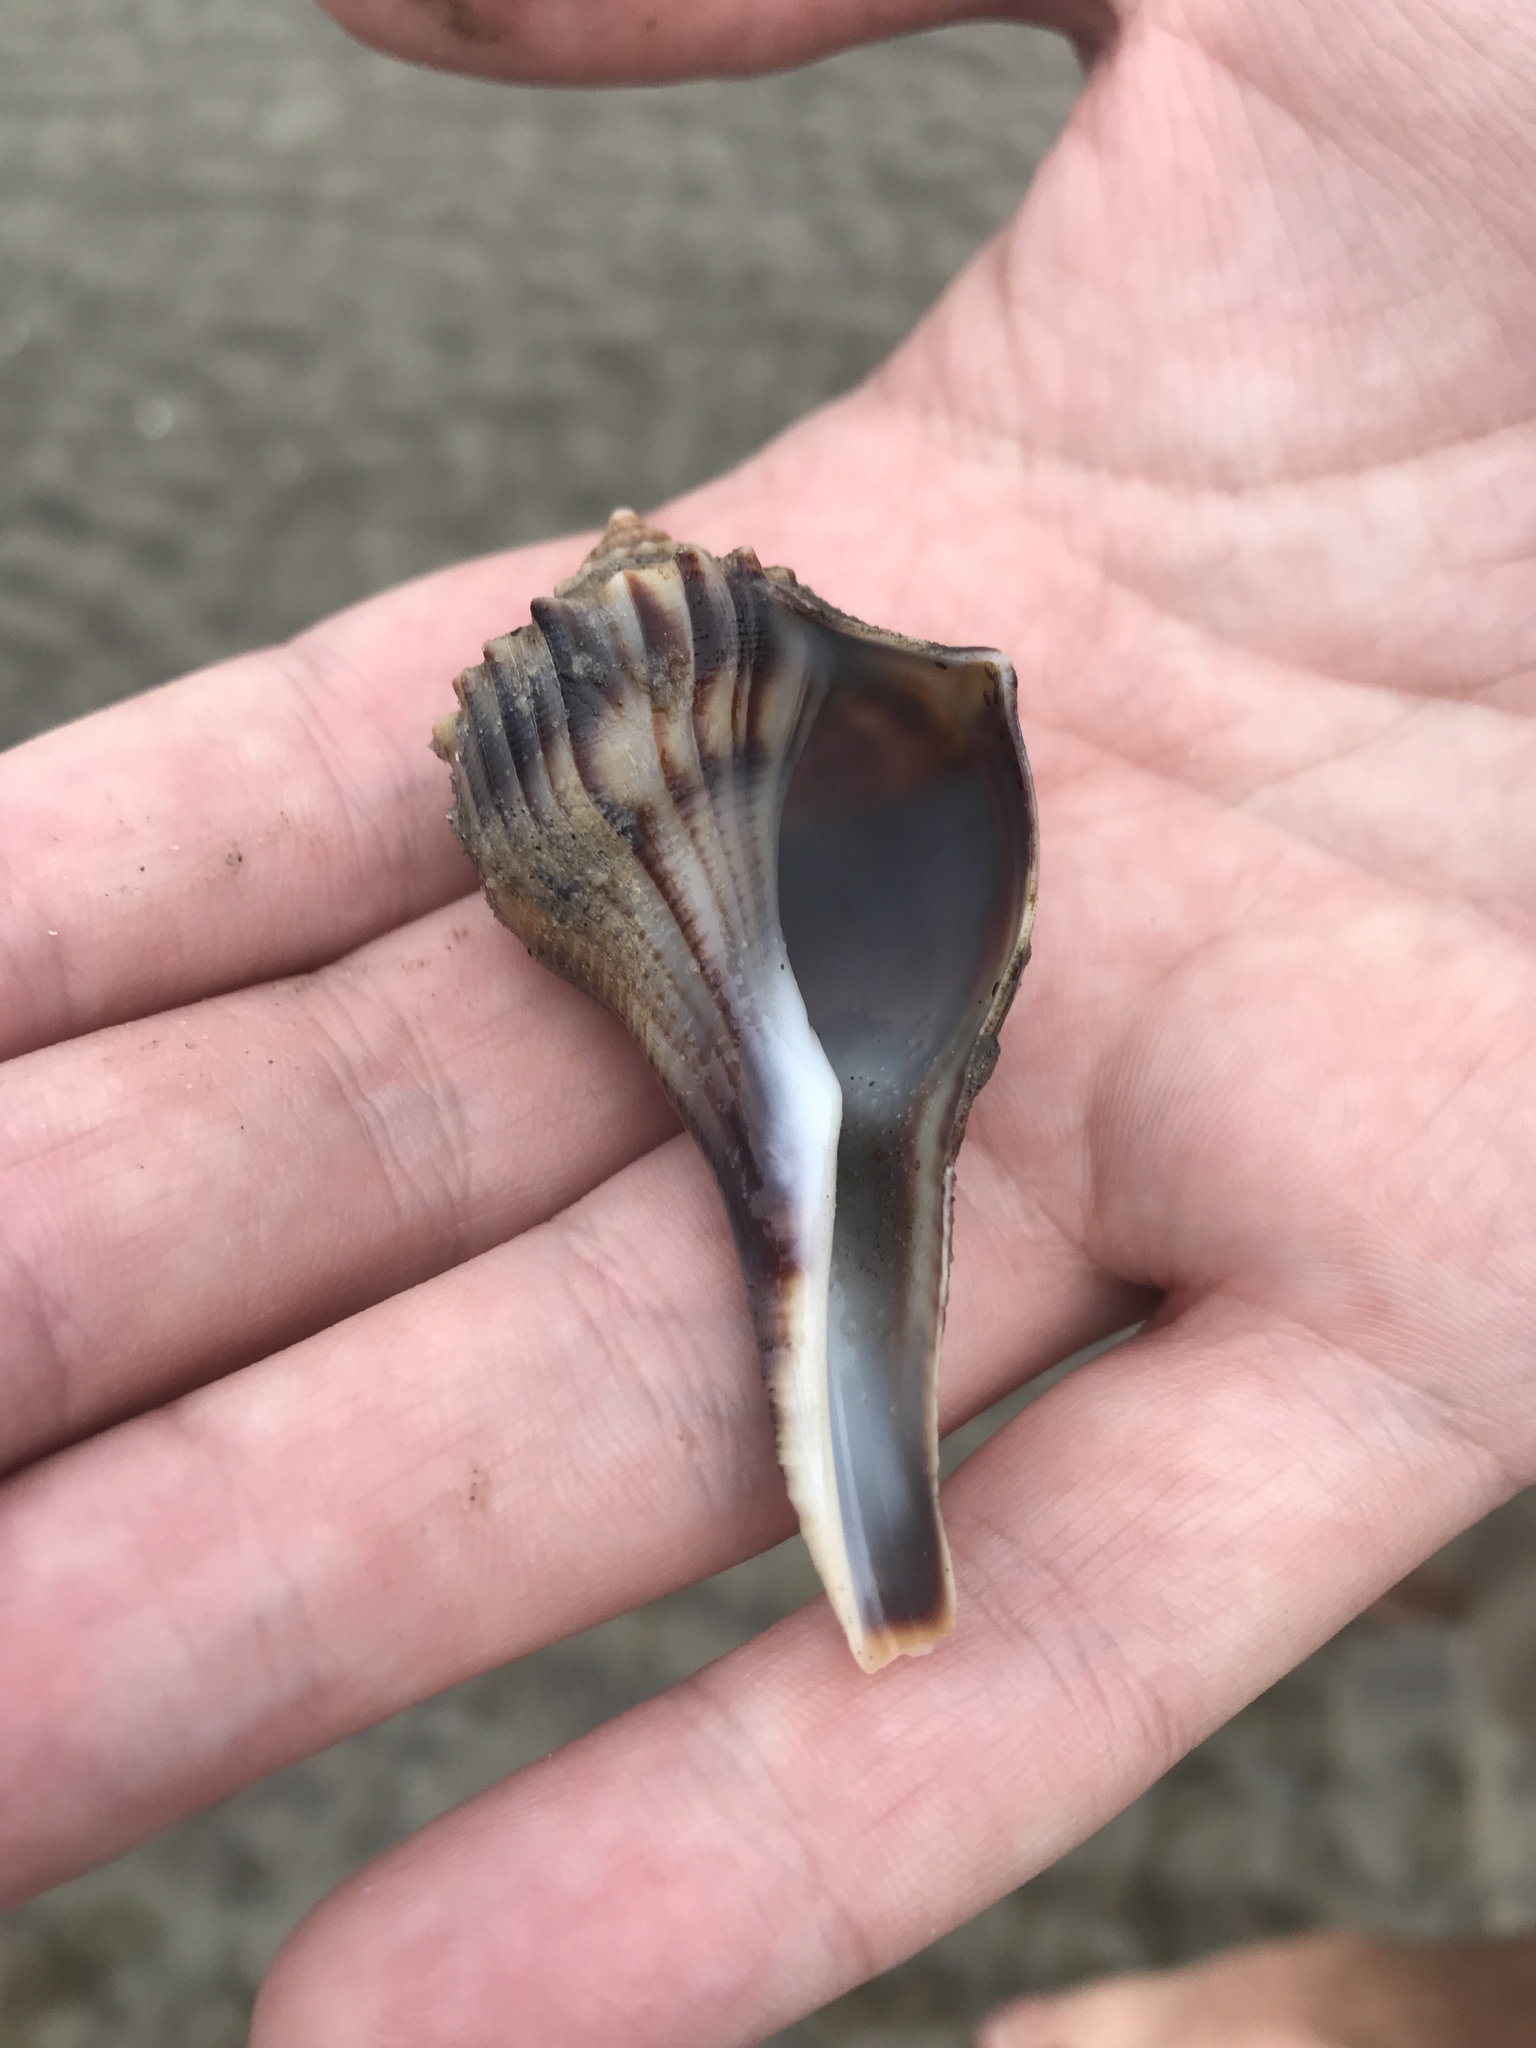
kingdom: Animalia
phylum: Mollusca
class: Gastropoda
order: Neogastropoda
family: Busyconidae
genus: Busycon
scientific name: Busycon carica
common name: Knobbed whelk
